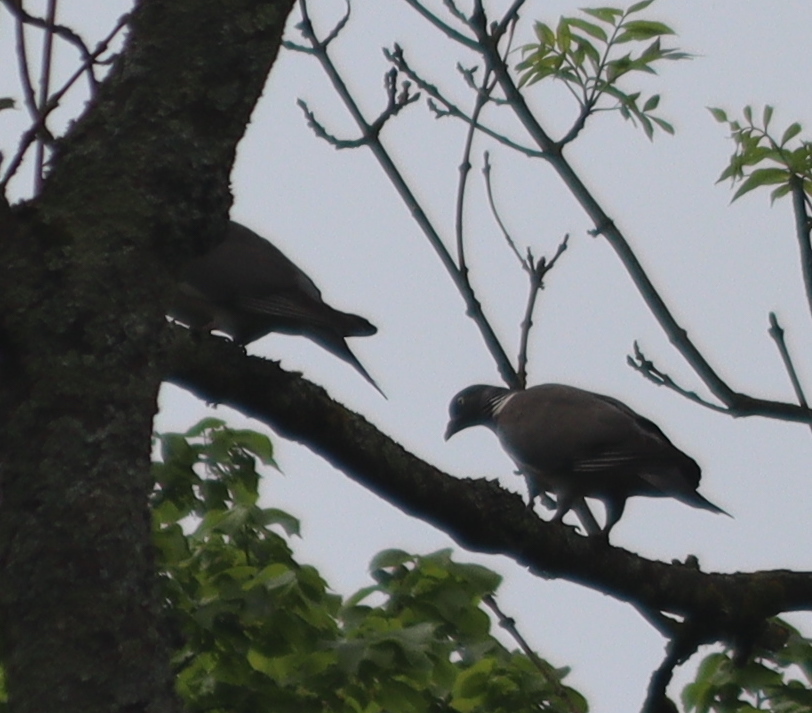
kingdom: Animalia
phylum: Chordata
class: Aves
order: Columbiformes
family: Columbidae
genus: Columba
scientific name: Columba palumbus
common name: Common wood pigeon
